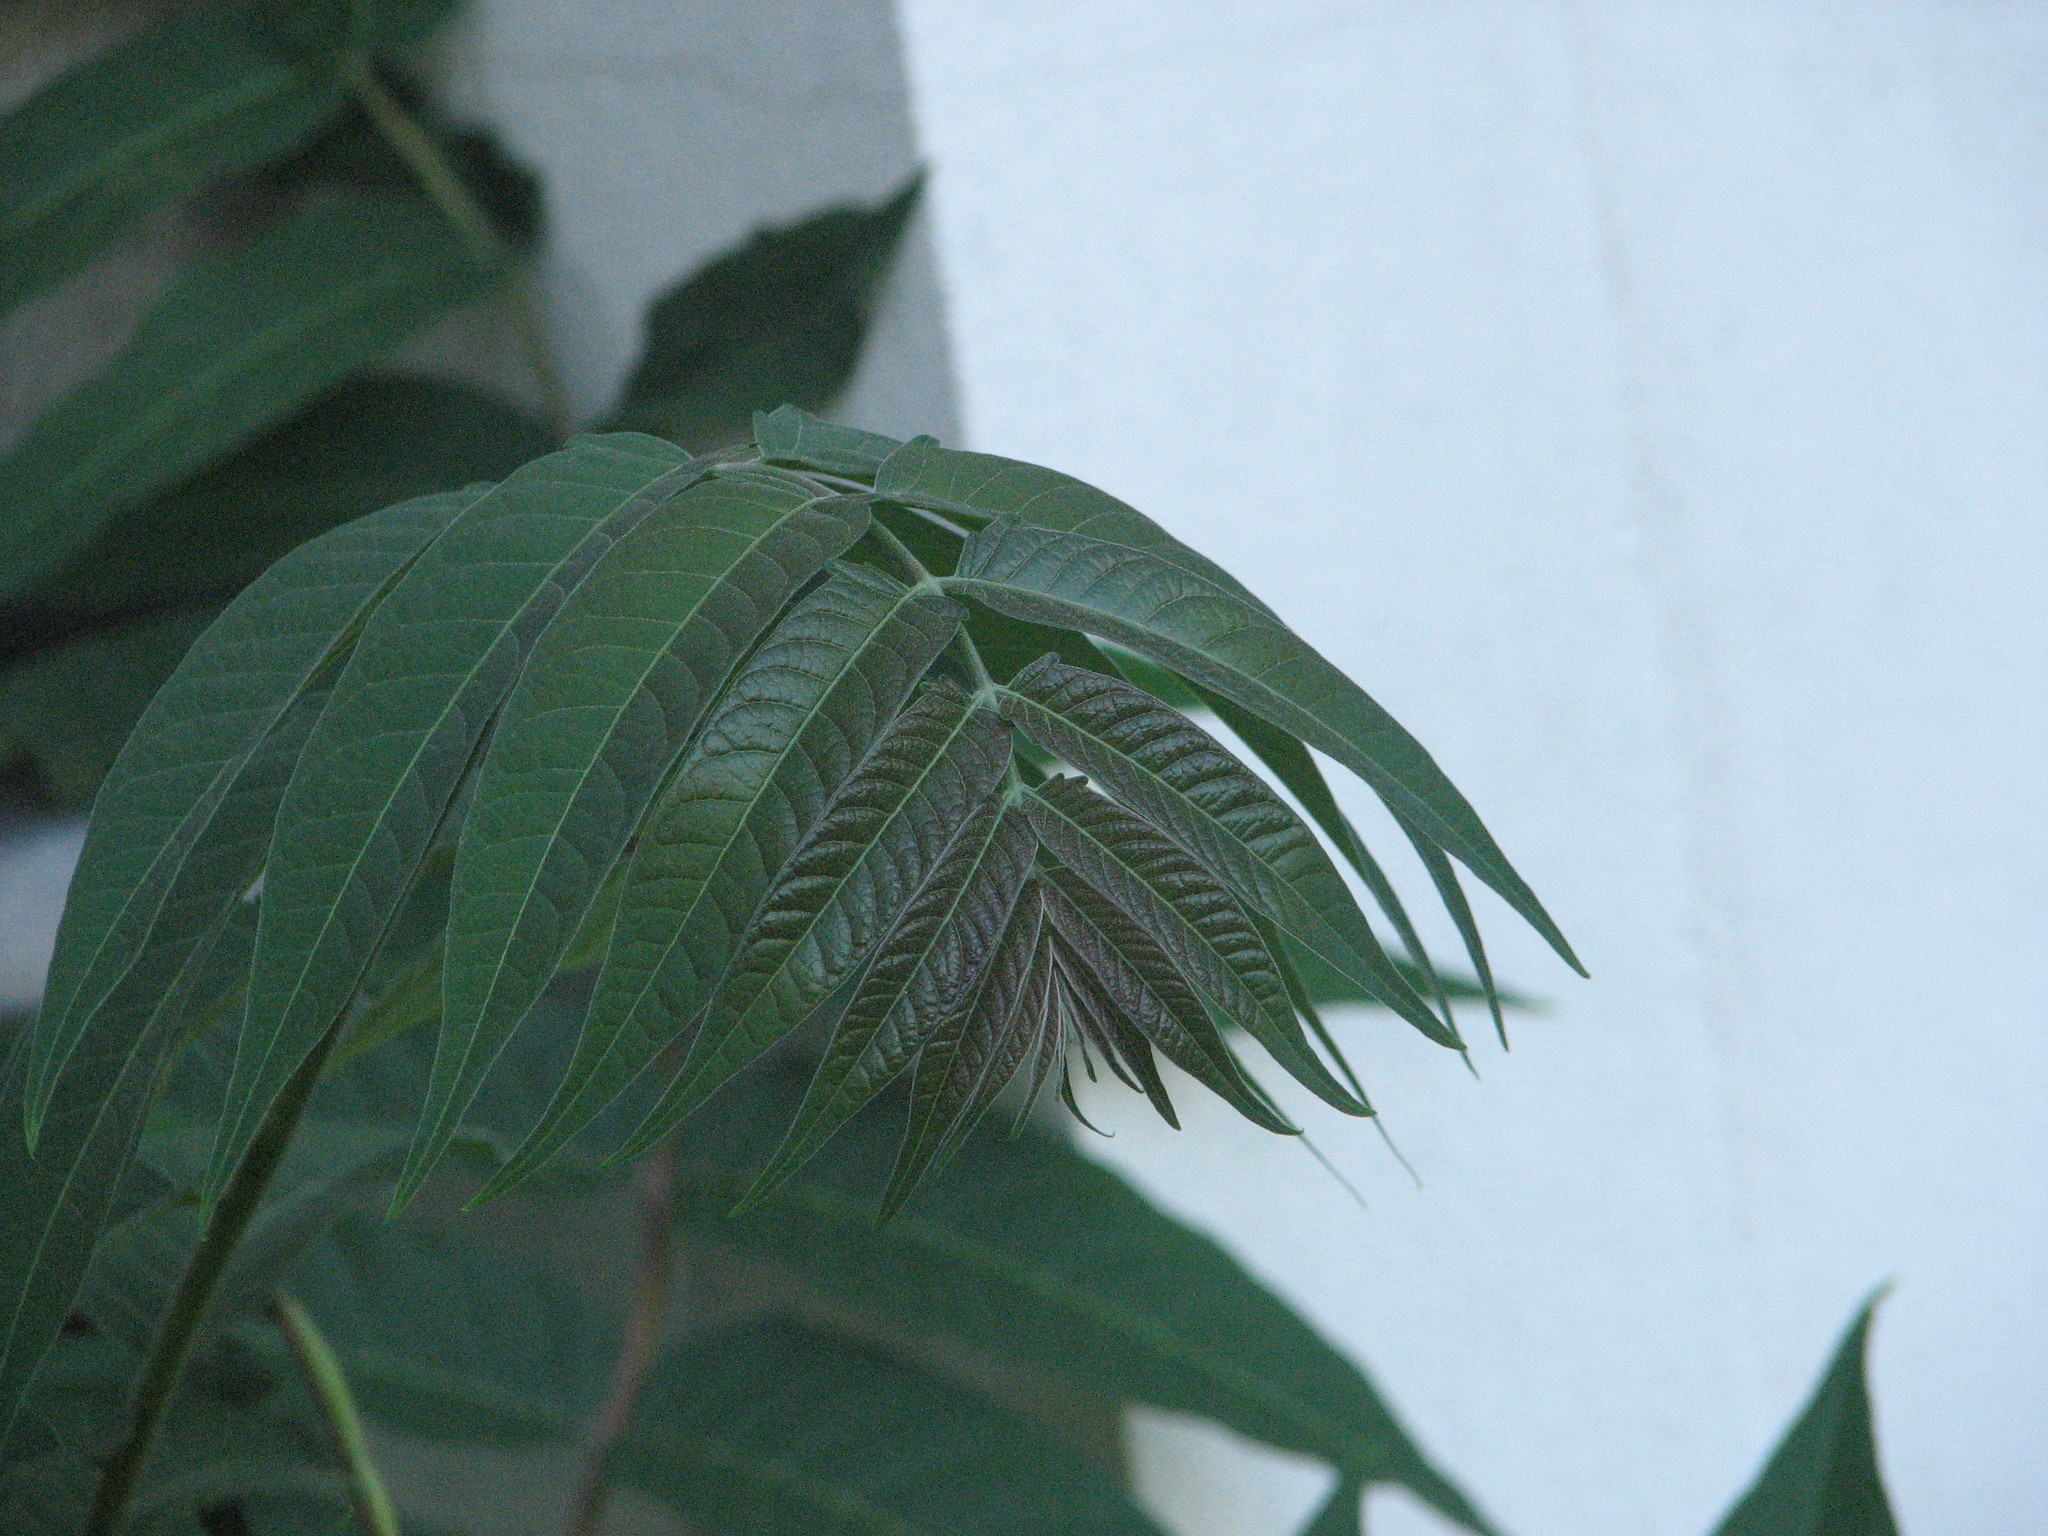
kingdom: Plantae
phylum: Tracheophyta
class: Magnoliopsida
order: Sapindales
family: Simaroubaceae
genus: Ailanthus
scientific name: Ailanthus altissima
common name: Tree-of-heaven
